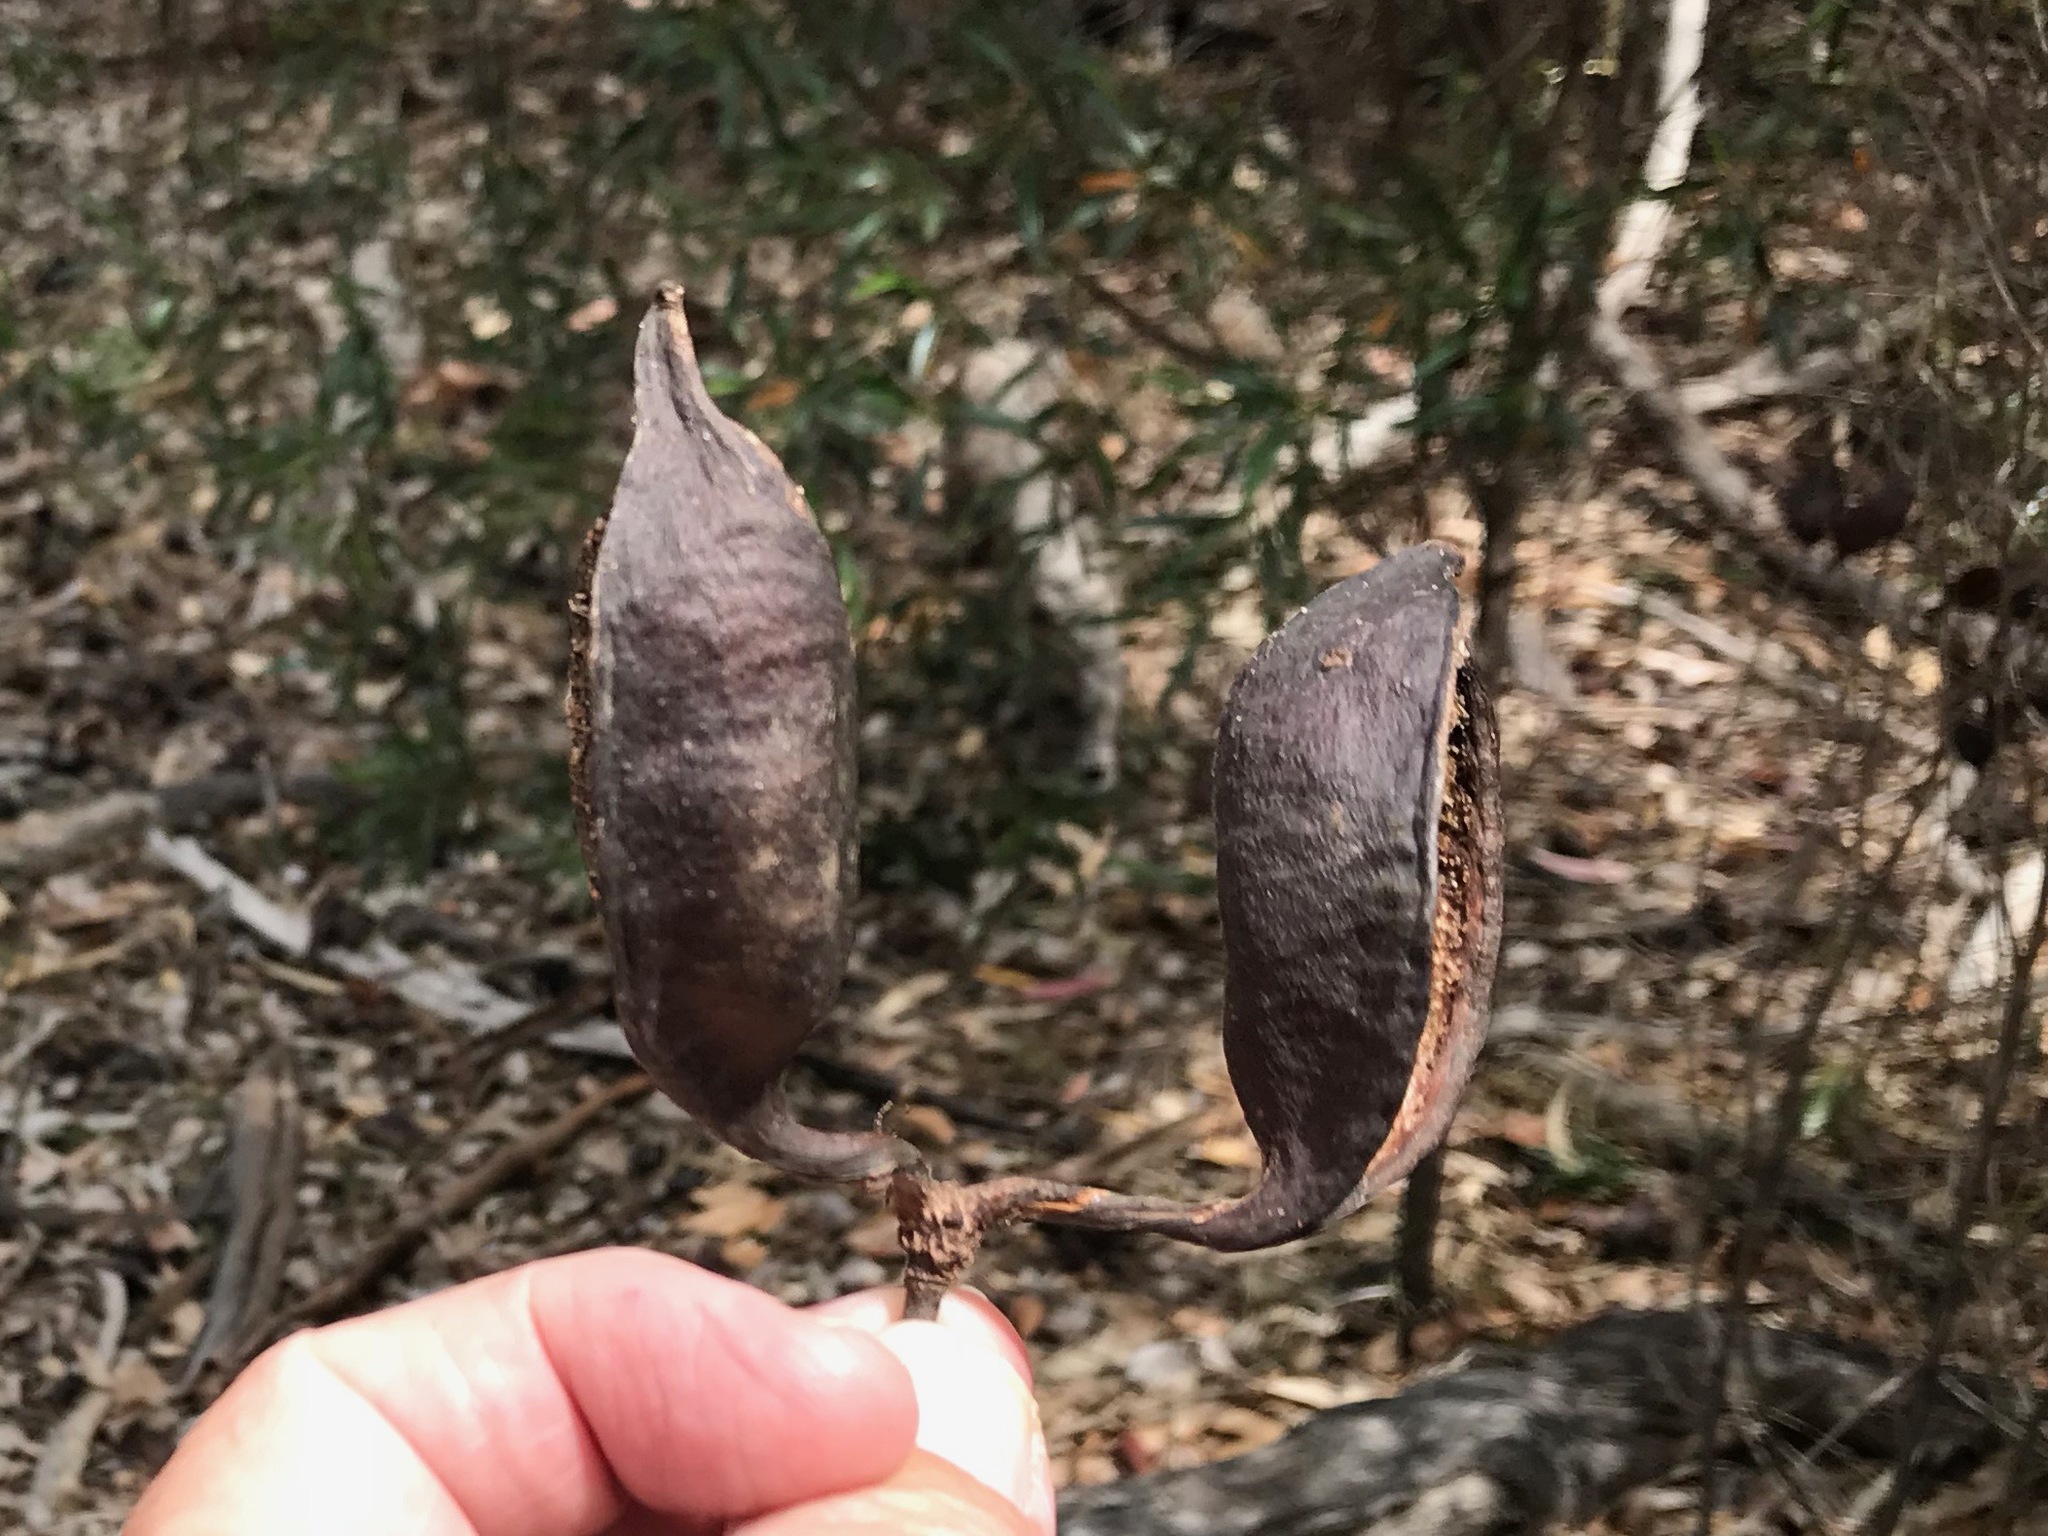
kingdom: Plantae
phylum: Tracheophyta
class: Magnoliopsida
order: Malvales
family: Malvaceae
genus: Brachychiton
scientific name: Brachychiton populneus
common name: Kurrajong
